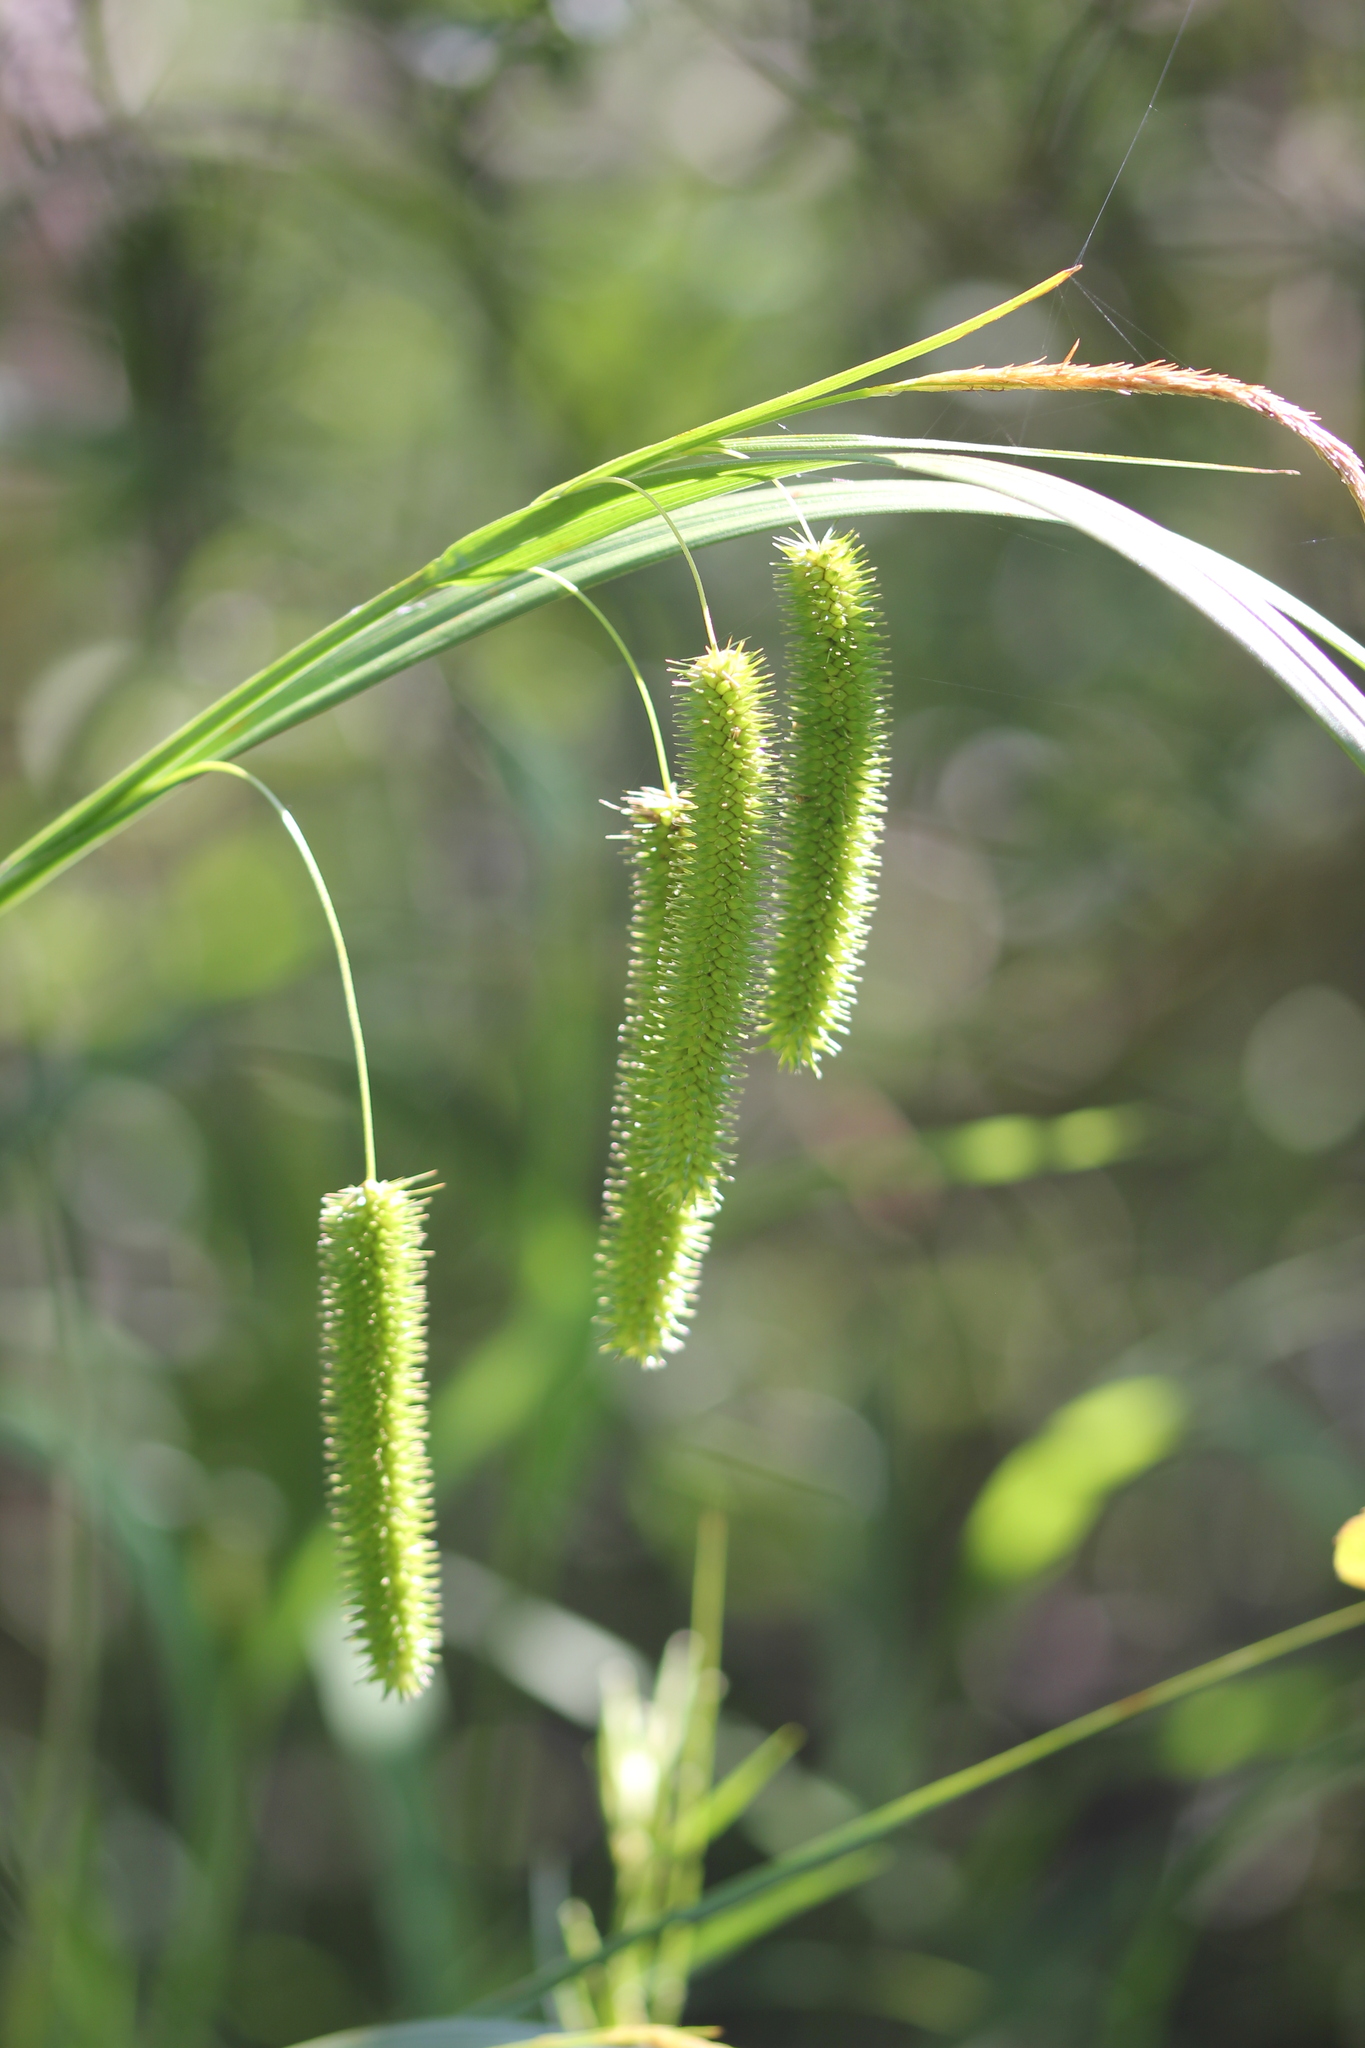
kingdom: Plantae
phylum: Tracheophyta
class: Liliopsida
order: Poales
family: Cyperaceae
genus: Carex
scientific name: Carex pseudocyperus
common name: Cyperus sedge
